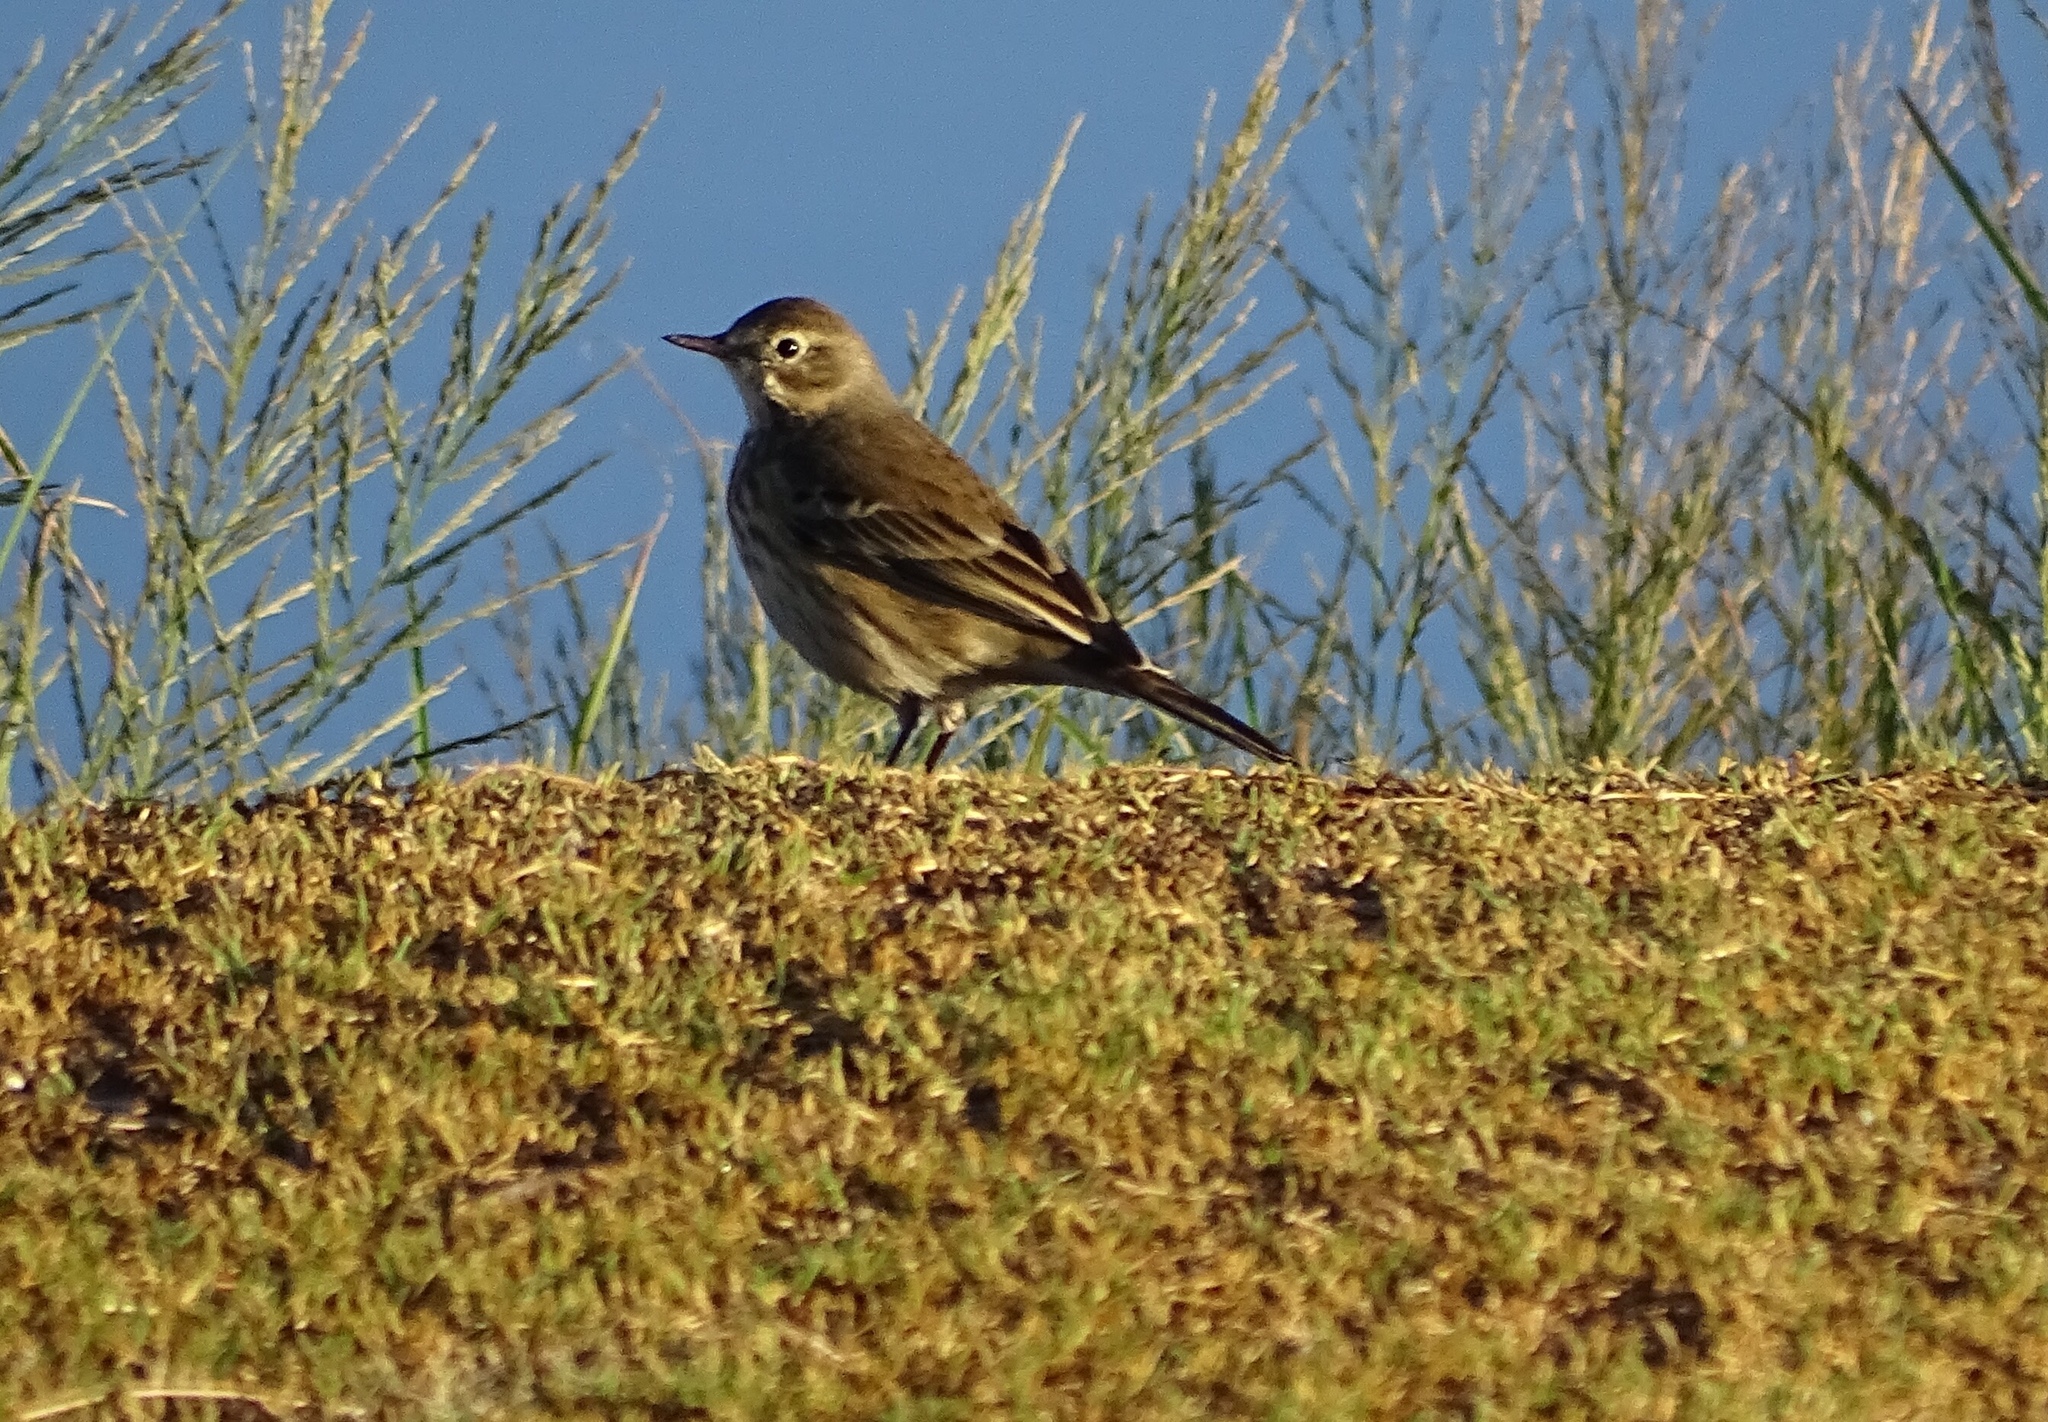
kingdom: Animalia
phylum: Chordata
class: Aves
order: Passeriformes
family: Motacillidae
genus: Anthus
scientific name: Anthus rubescens
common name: Buff-bellied pipit
